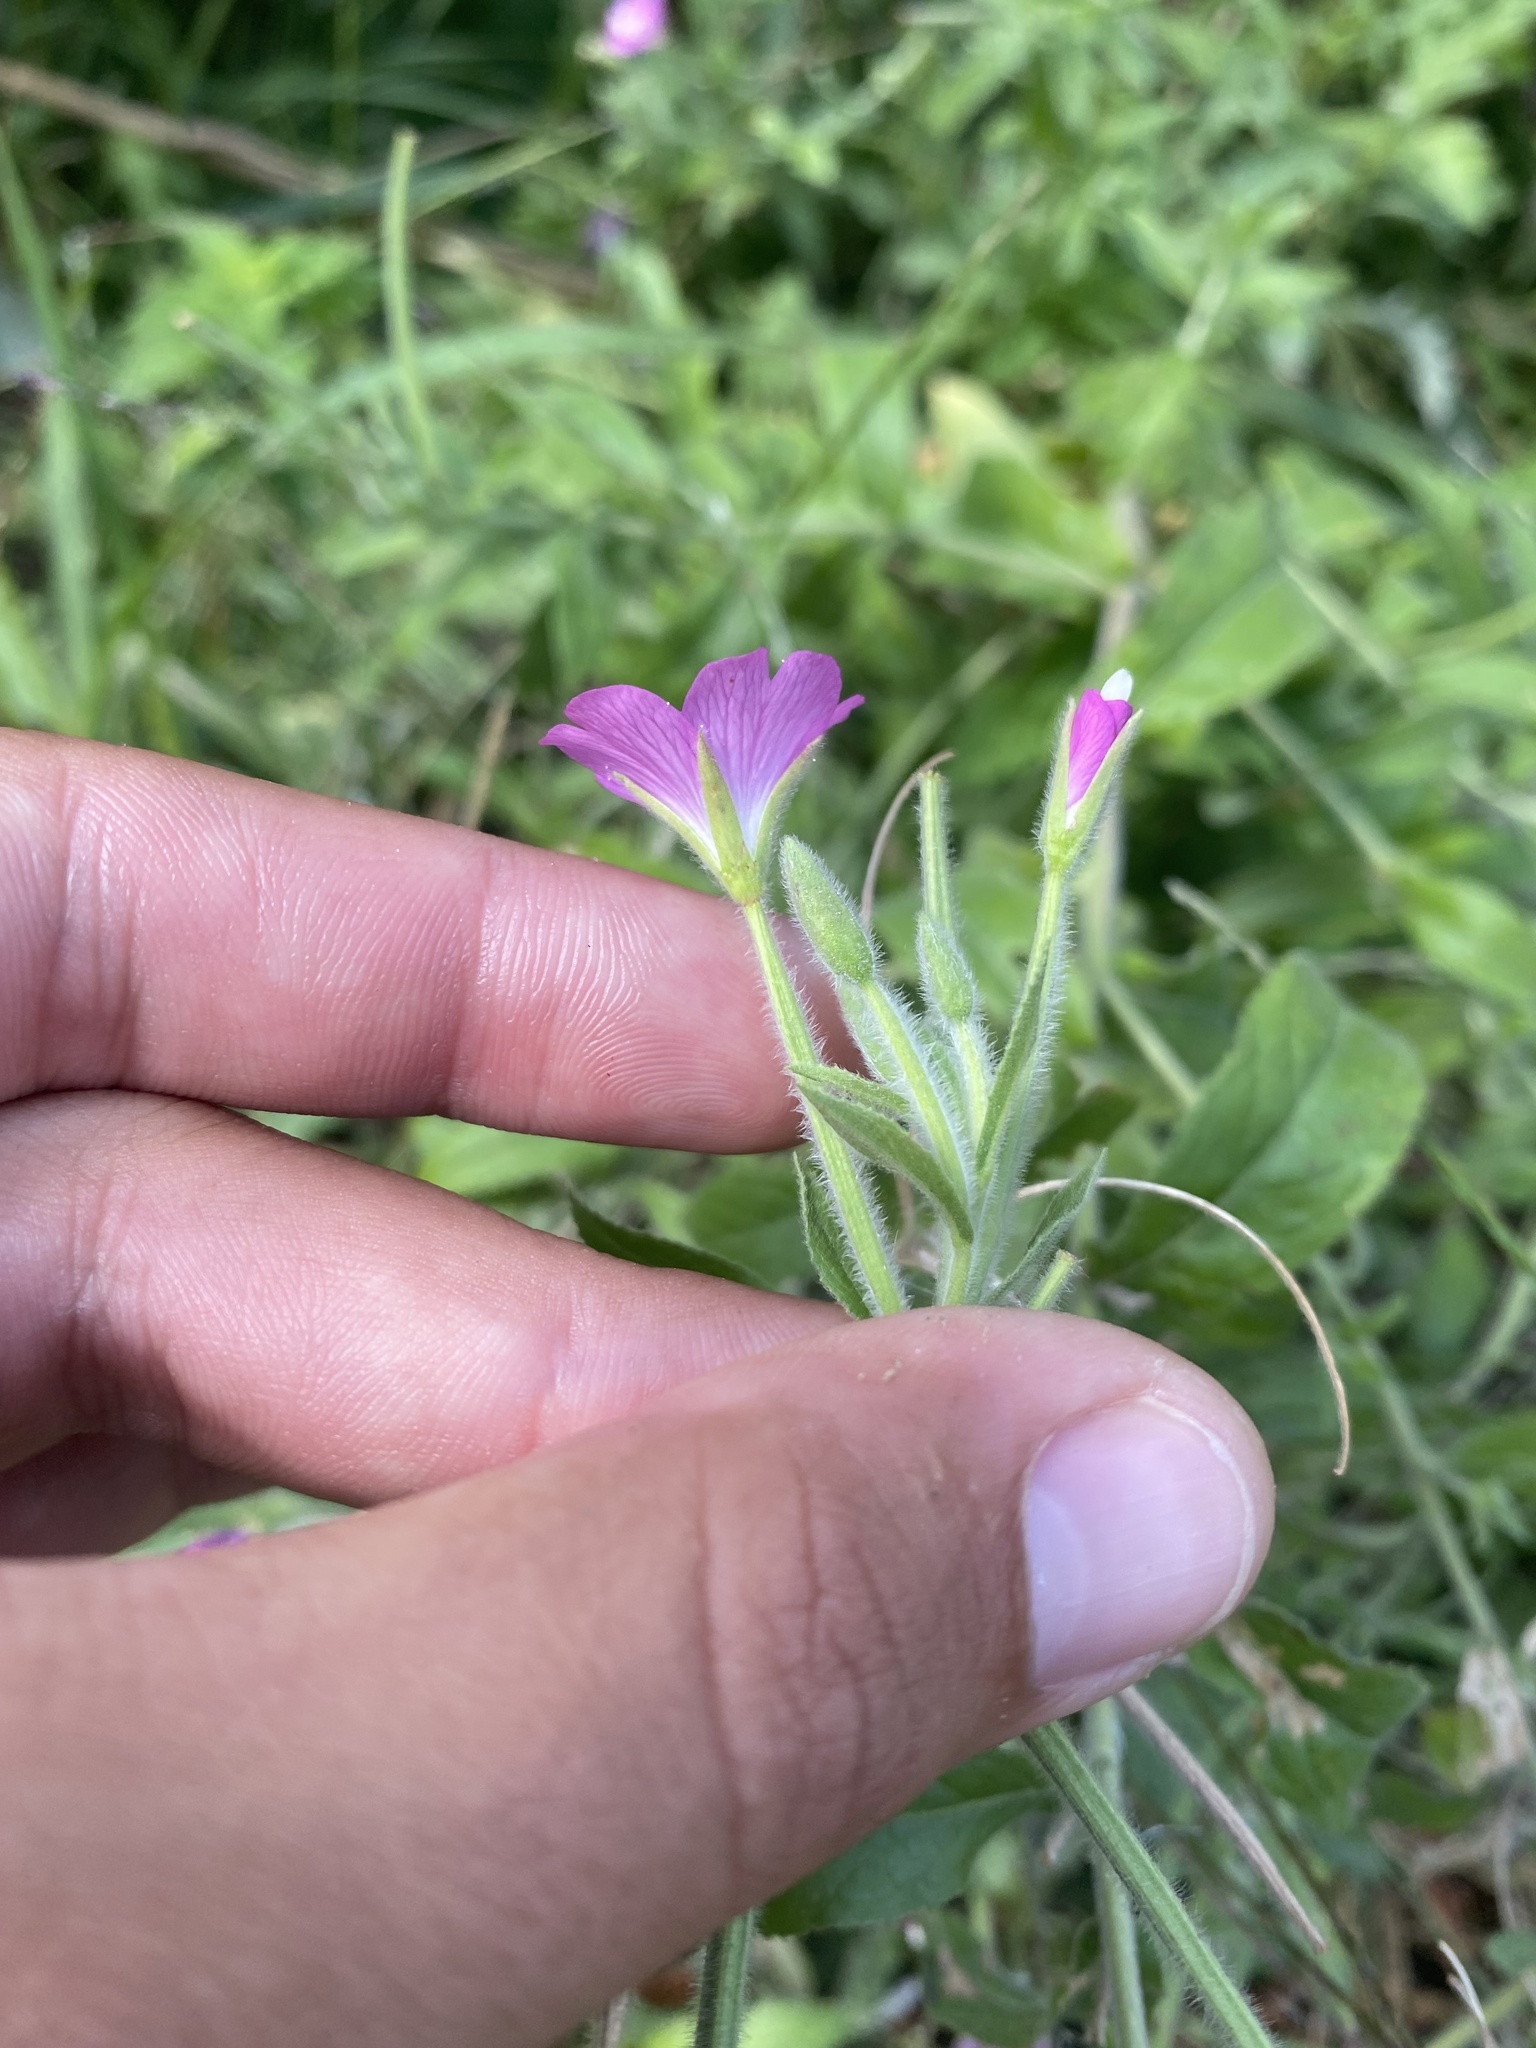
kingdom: Plantae
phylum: Tracheophyta
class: Magnoliopsida
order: Myrtales
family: Onagraceae
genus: Epilobium
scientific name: Epilobium hirsutum
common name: Great willowherb
